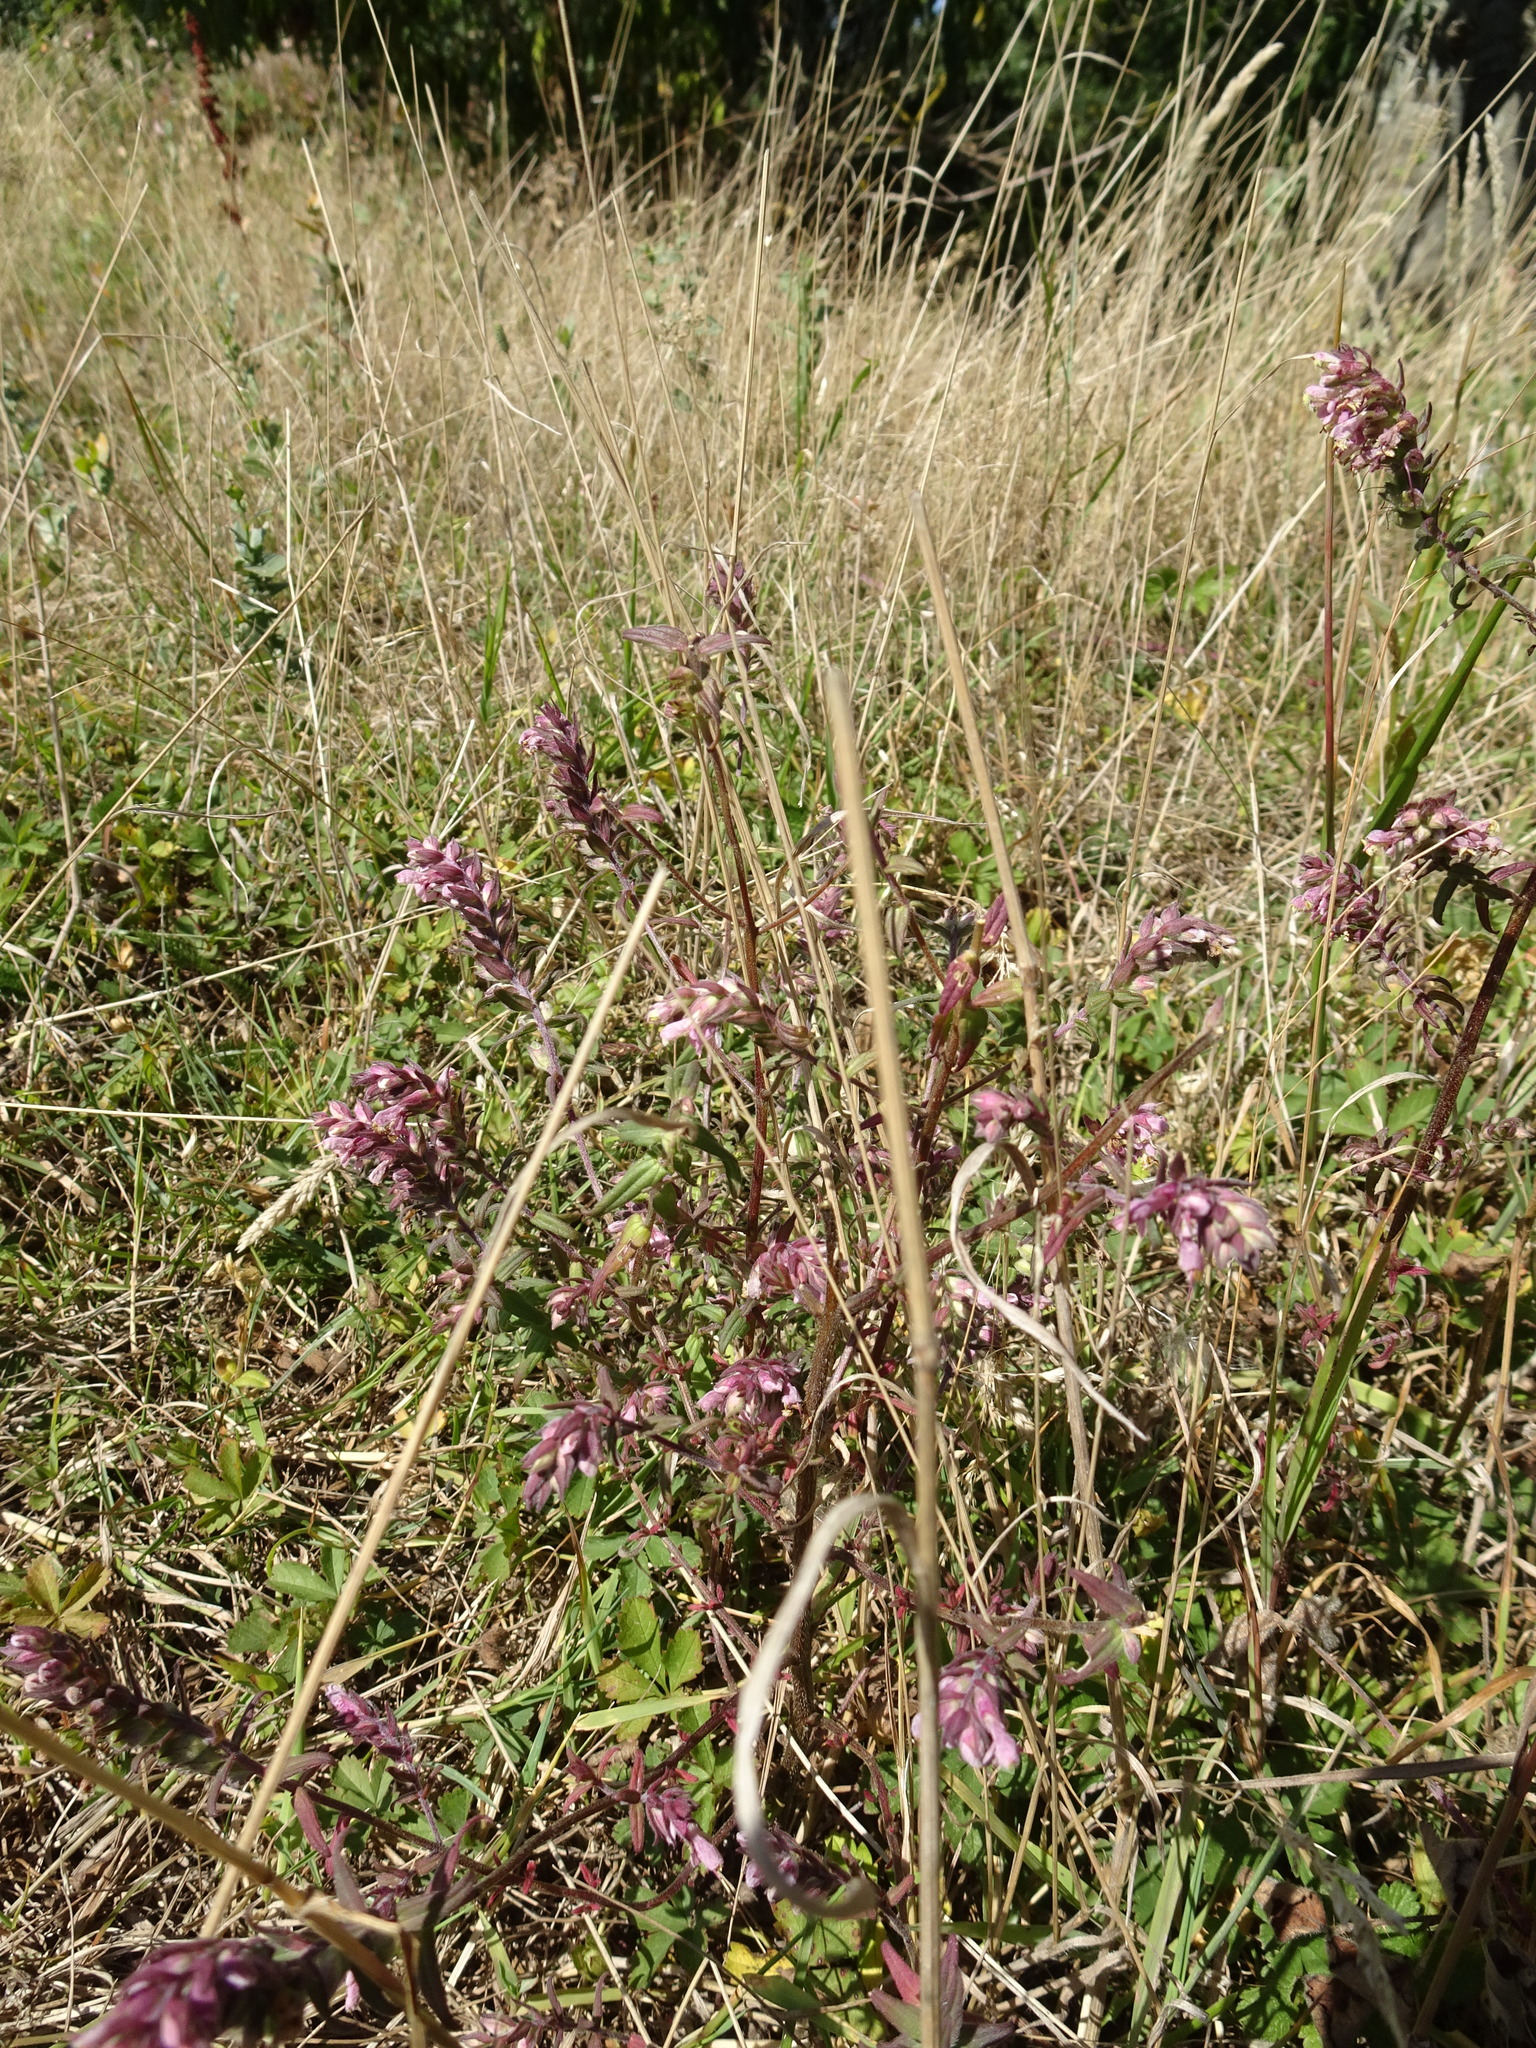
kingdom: Plantae
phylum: Tracheophyta
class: Magnoliopsida
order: Lamiales
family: Orobanchaceae
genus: Odontites
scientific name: Odontites vulgaris
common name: Broomrape
